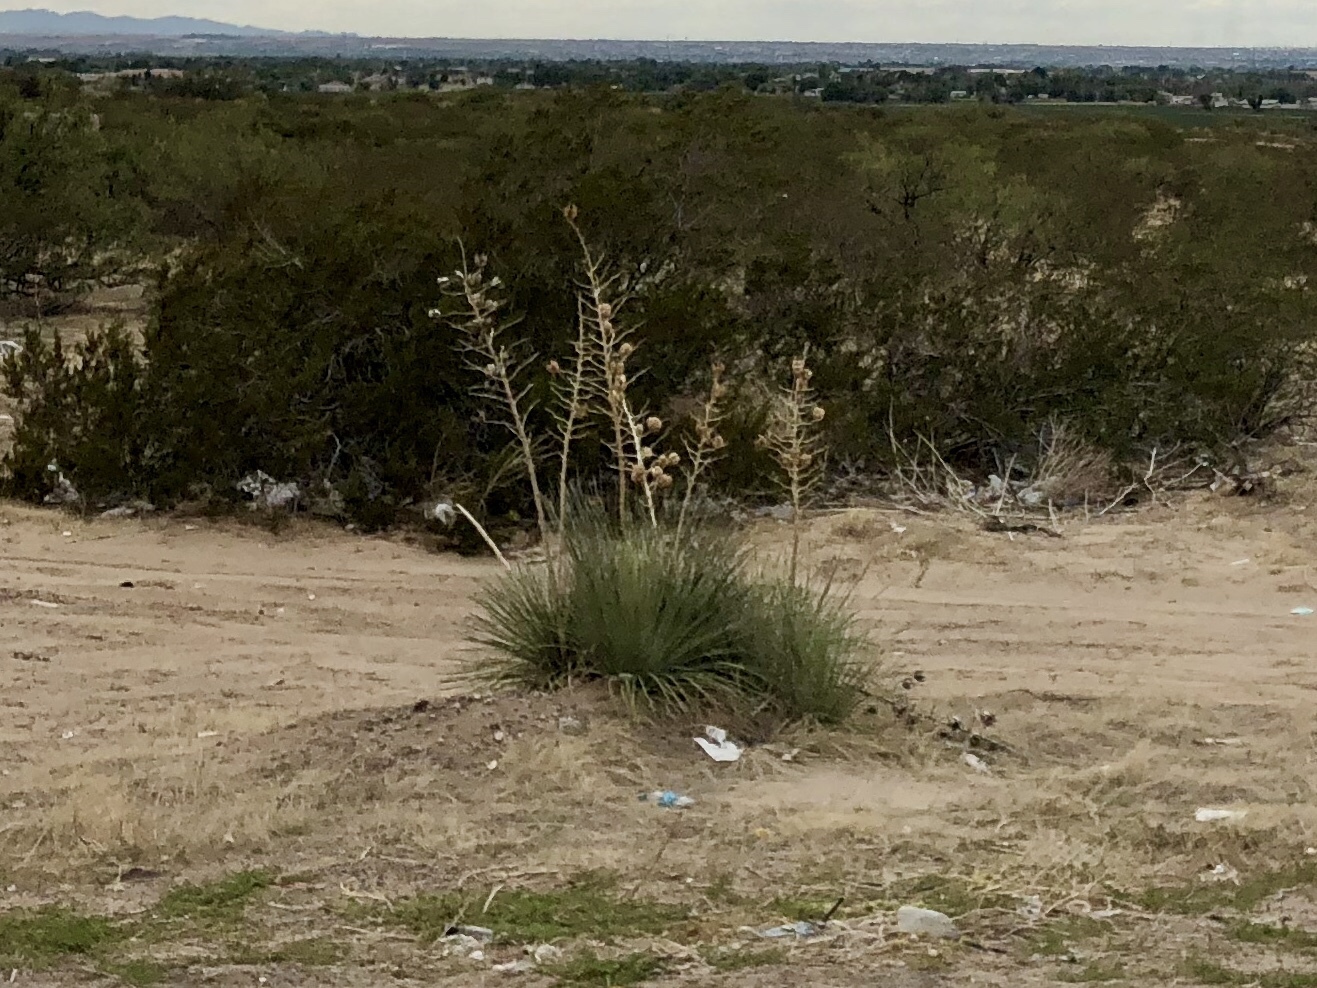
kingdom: Plantae
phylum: Tracheophyta
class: Liliopsida
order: Asparagales
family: Asparagaceae
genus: Yucca
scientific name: Yucca elata
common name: Palmella
